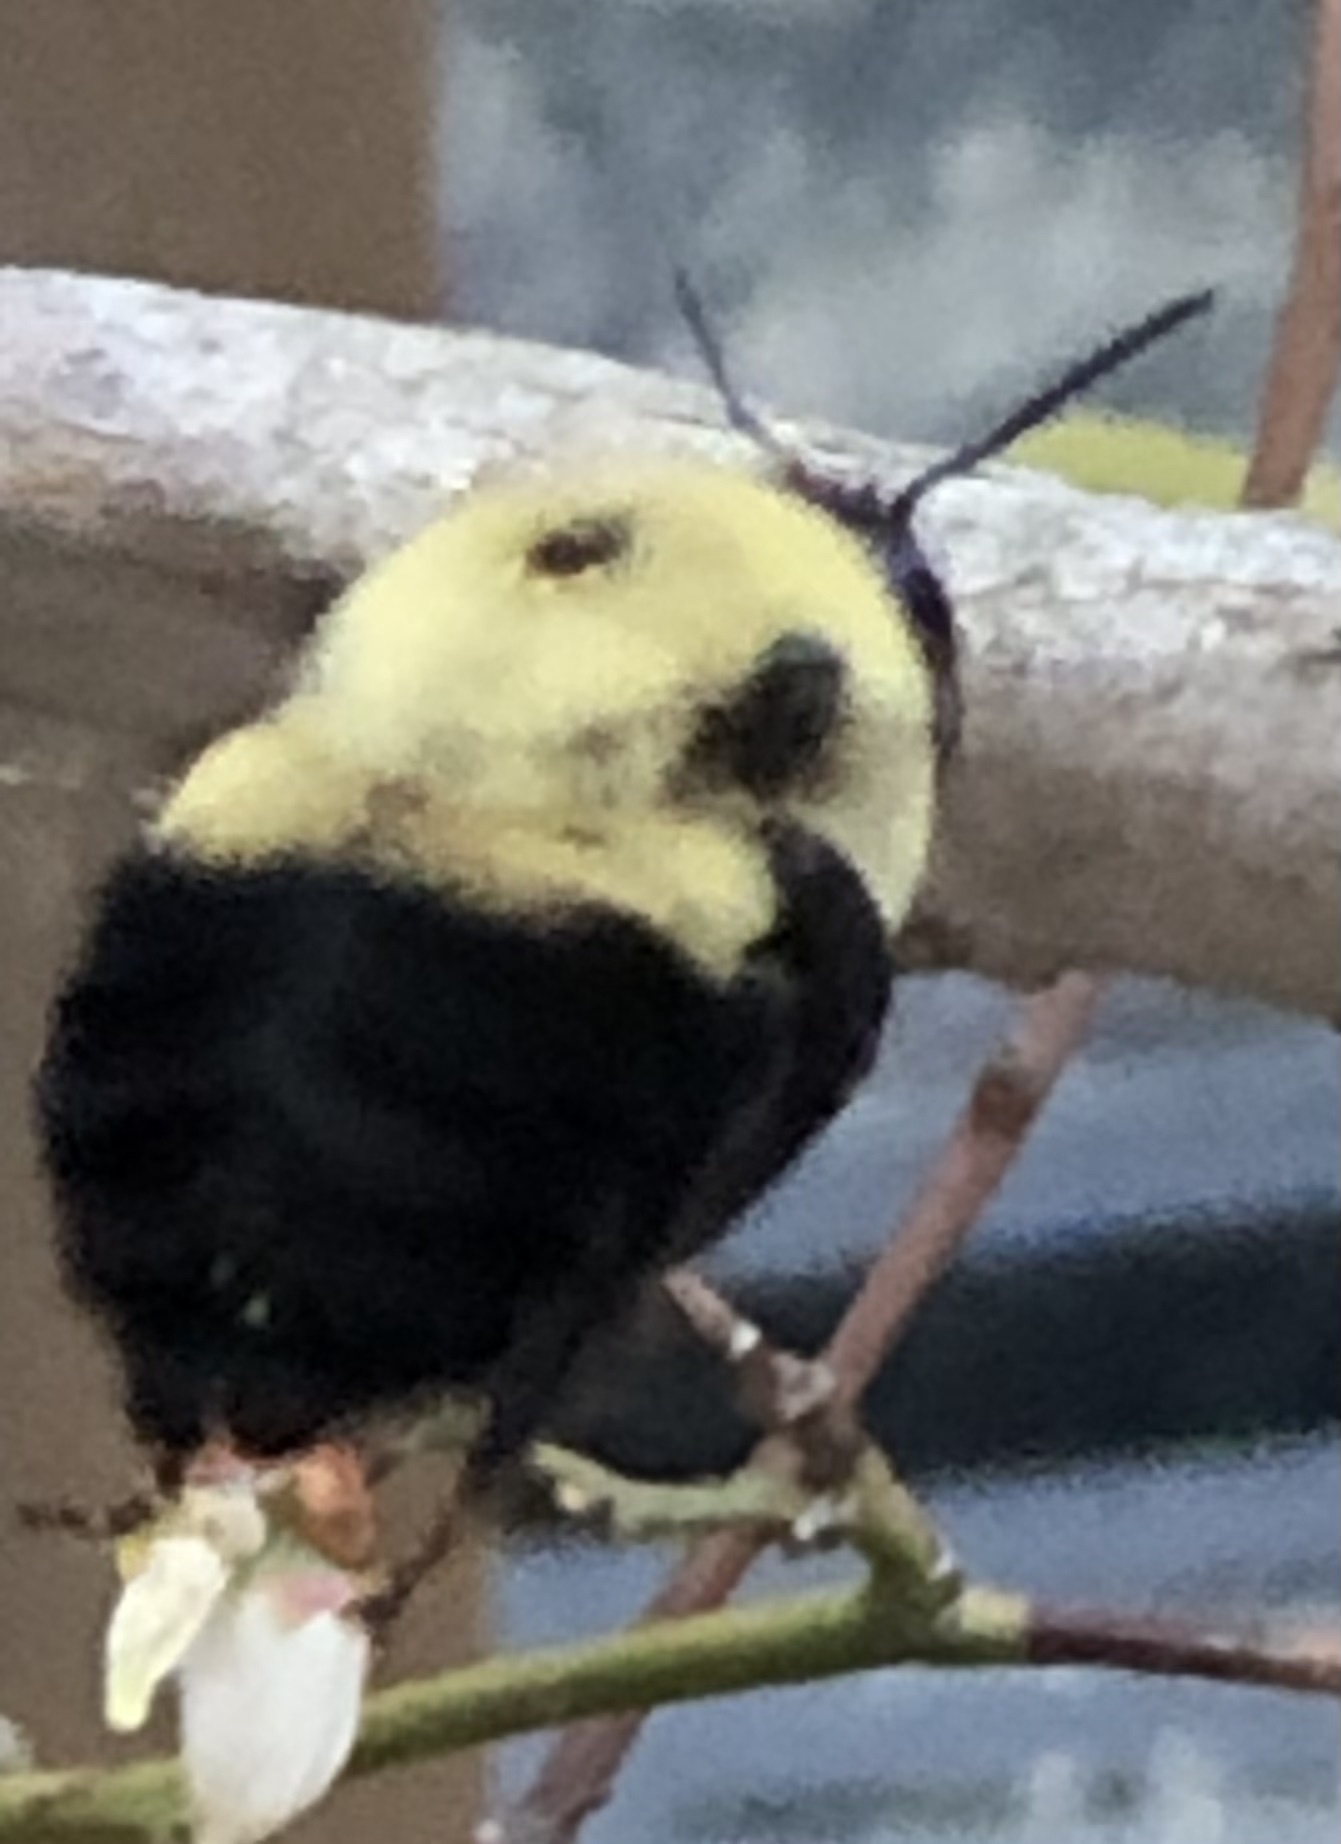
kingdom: Animalia
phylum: Arthropoda
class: Insecta
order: Hymenoptera
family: Apidae
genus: Bombus
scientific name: Bombus griseocollis
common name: Brown-belted bumble bee
